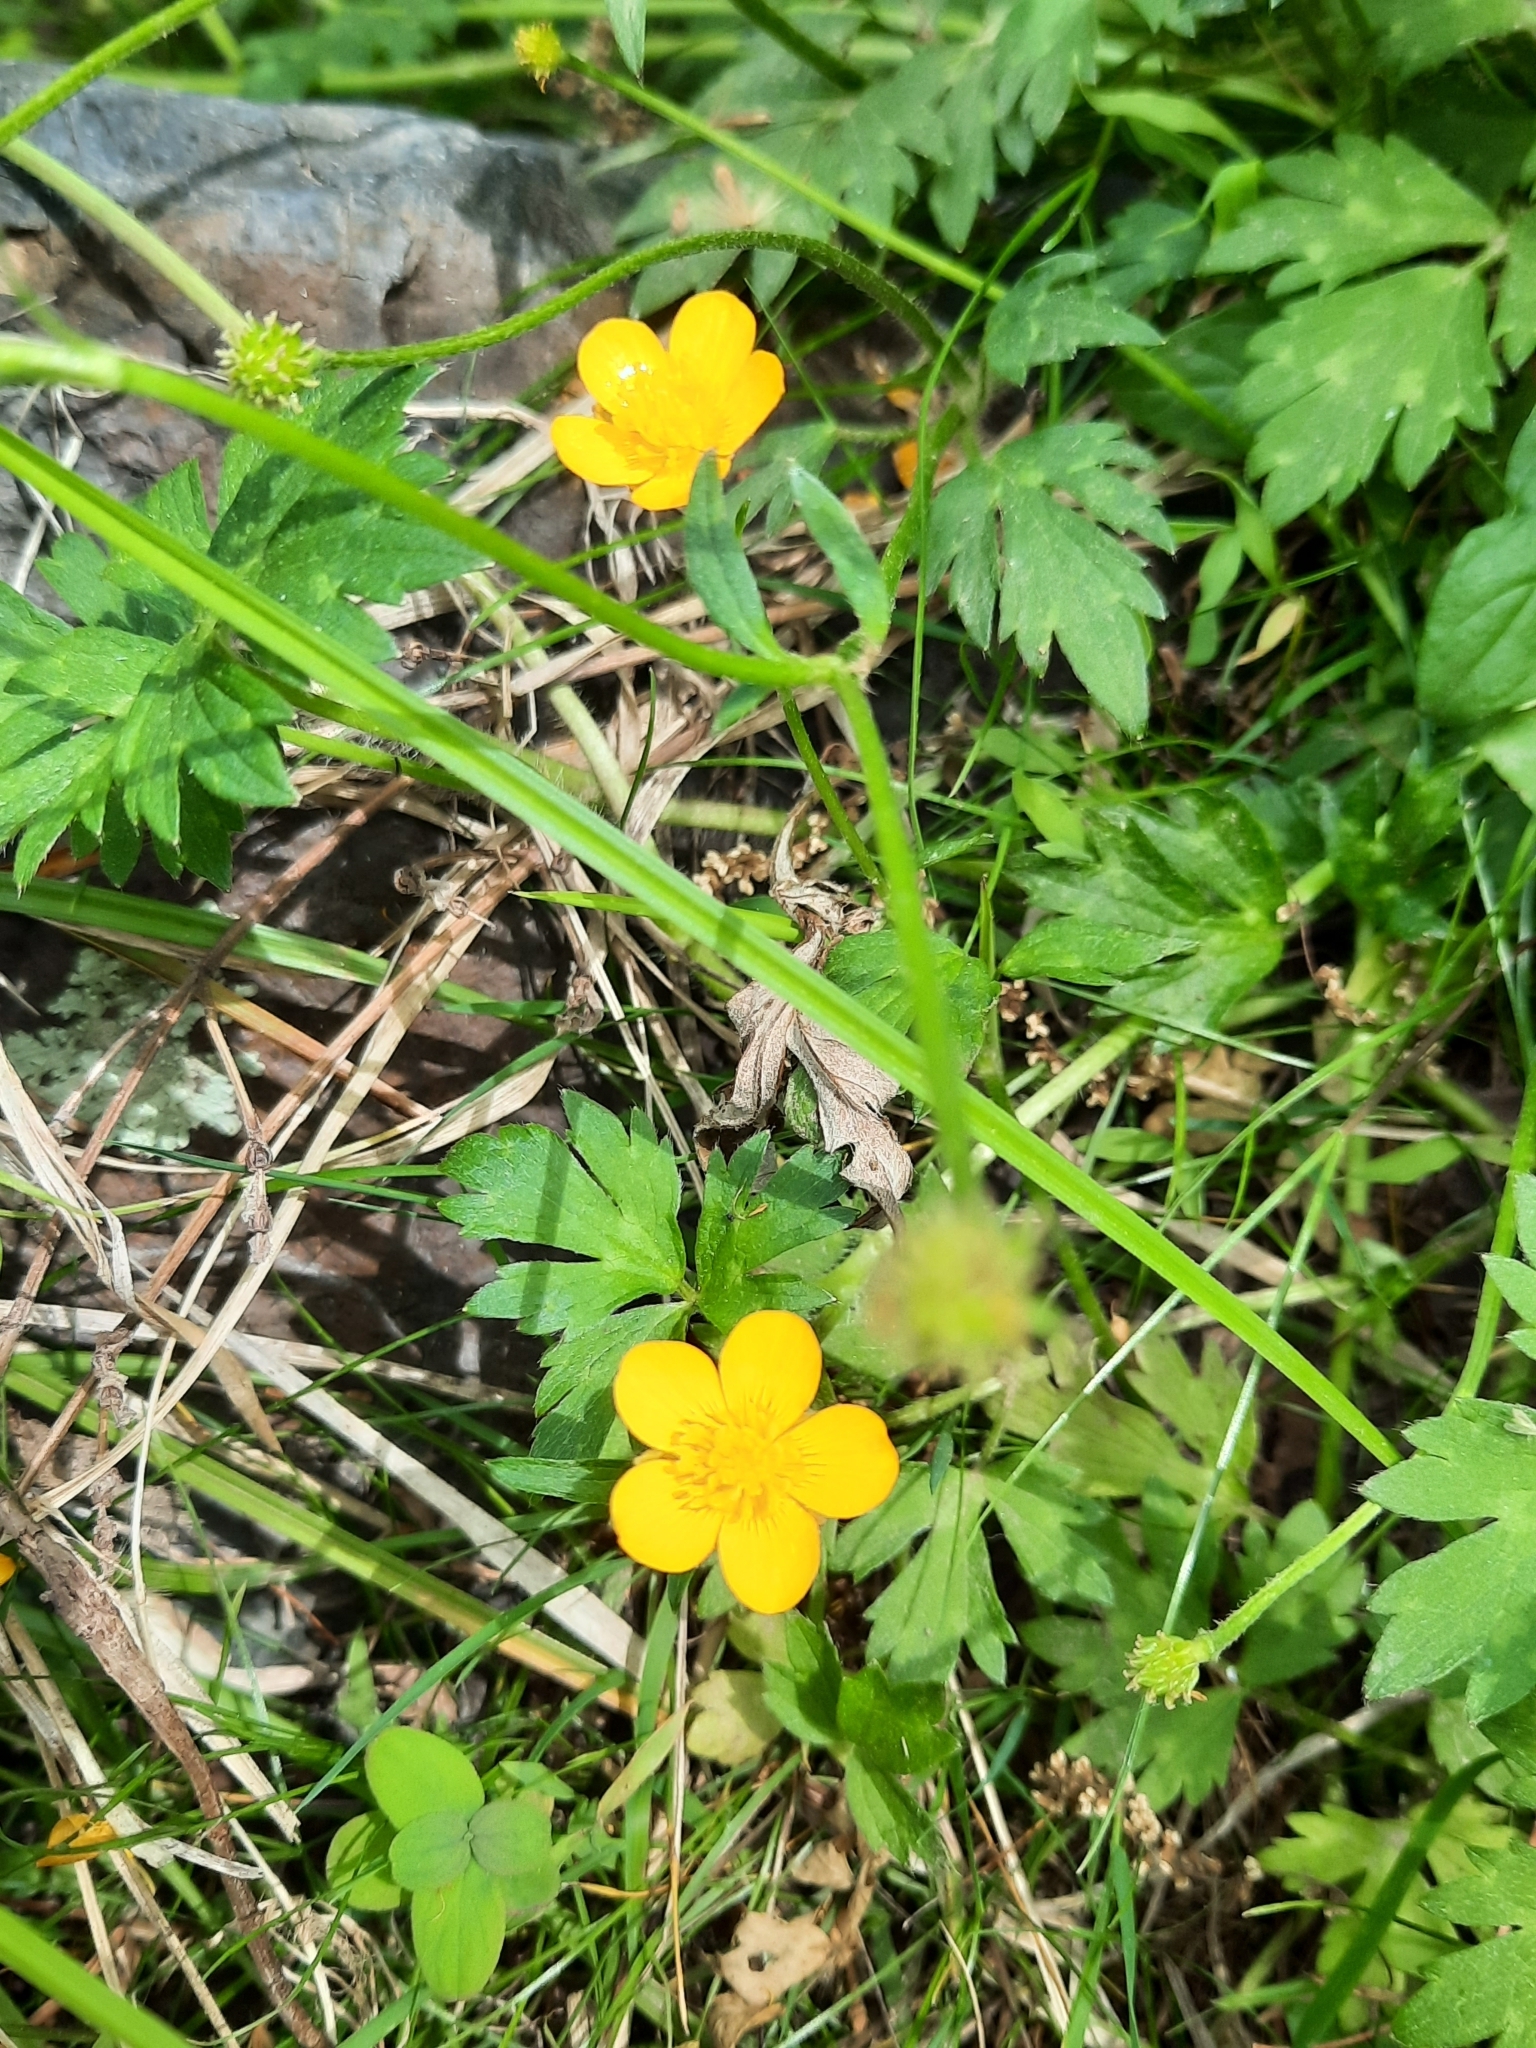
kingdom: Plantae
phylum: Tracheophyta
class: Magnoliopsida
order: Ranunculales
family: Ranunculaceae
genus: Ranunculus
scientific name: Ranunculus repens
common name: Creeping buttercup
